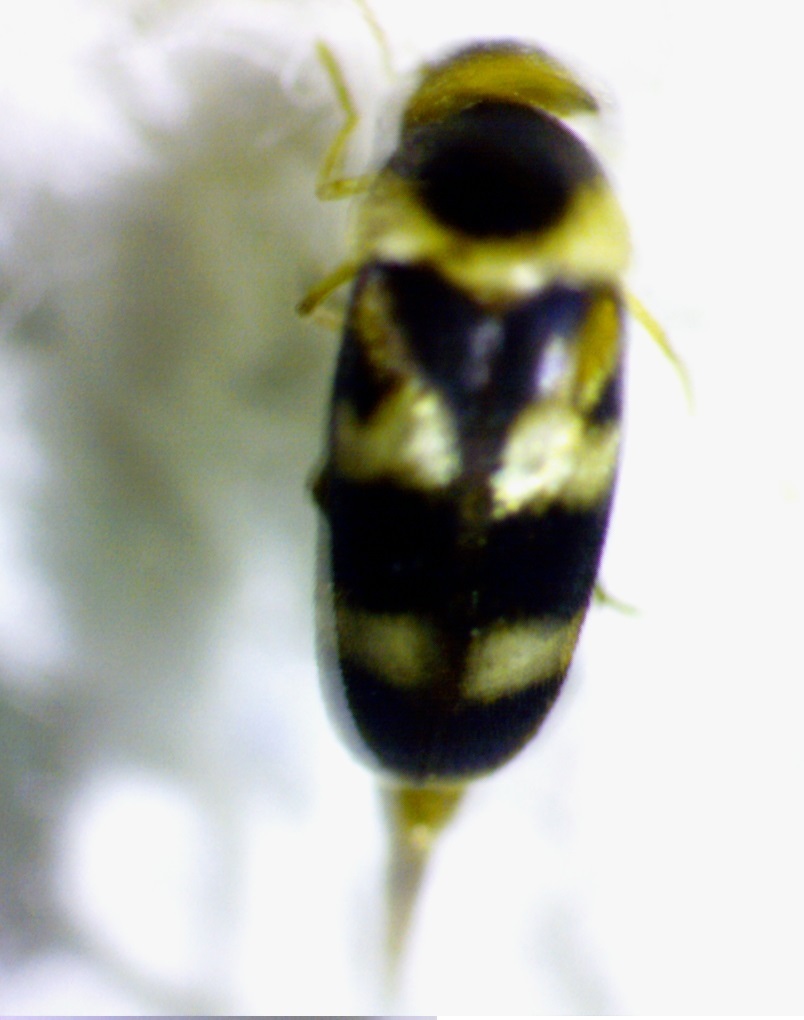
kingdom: Animalia
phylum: Arthropoda
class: Insecta
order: Coleoptera
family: Mordellidae
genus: Tolidomordella
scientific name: Tolidomordella discoidea
